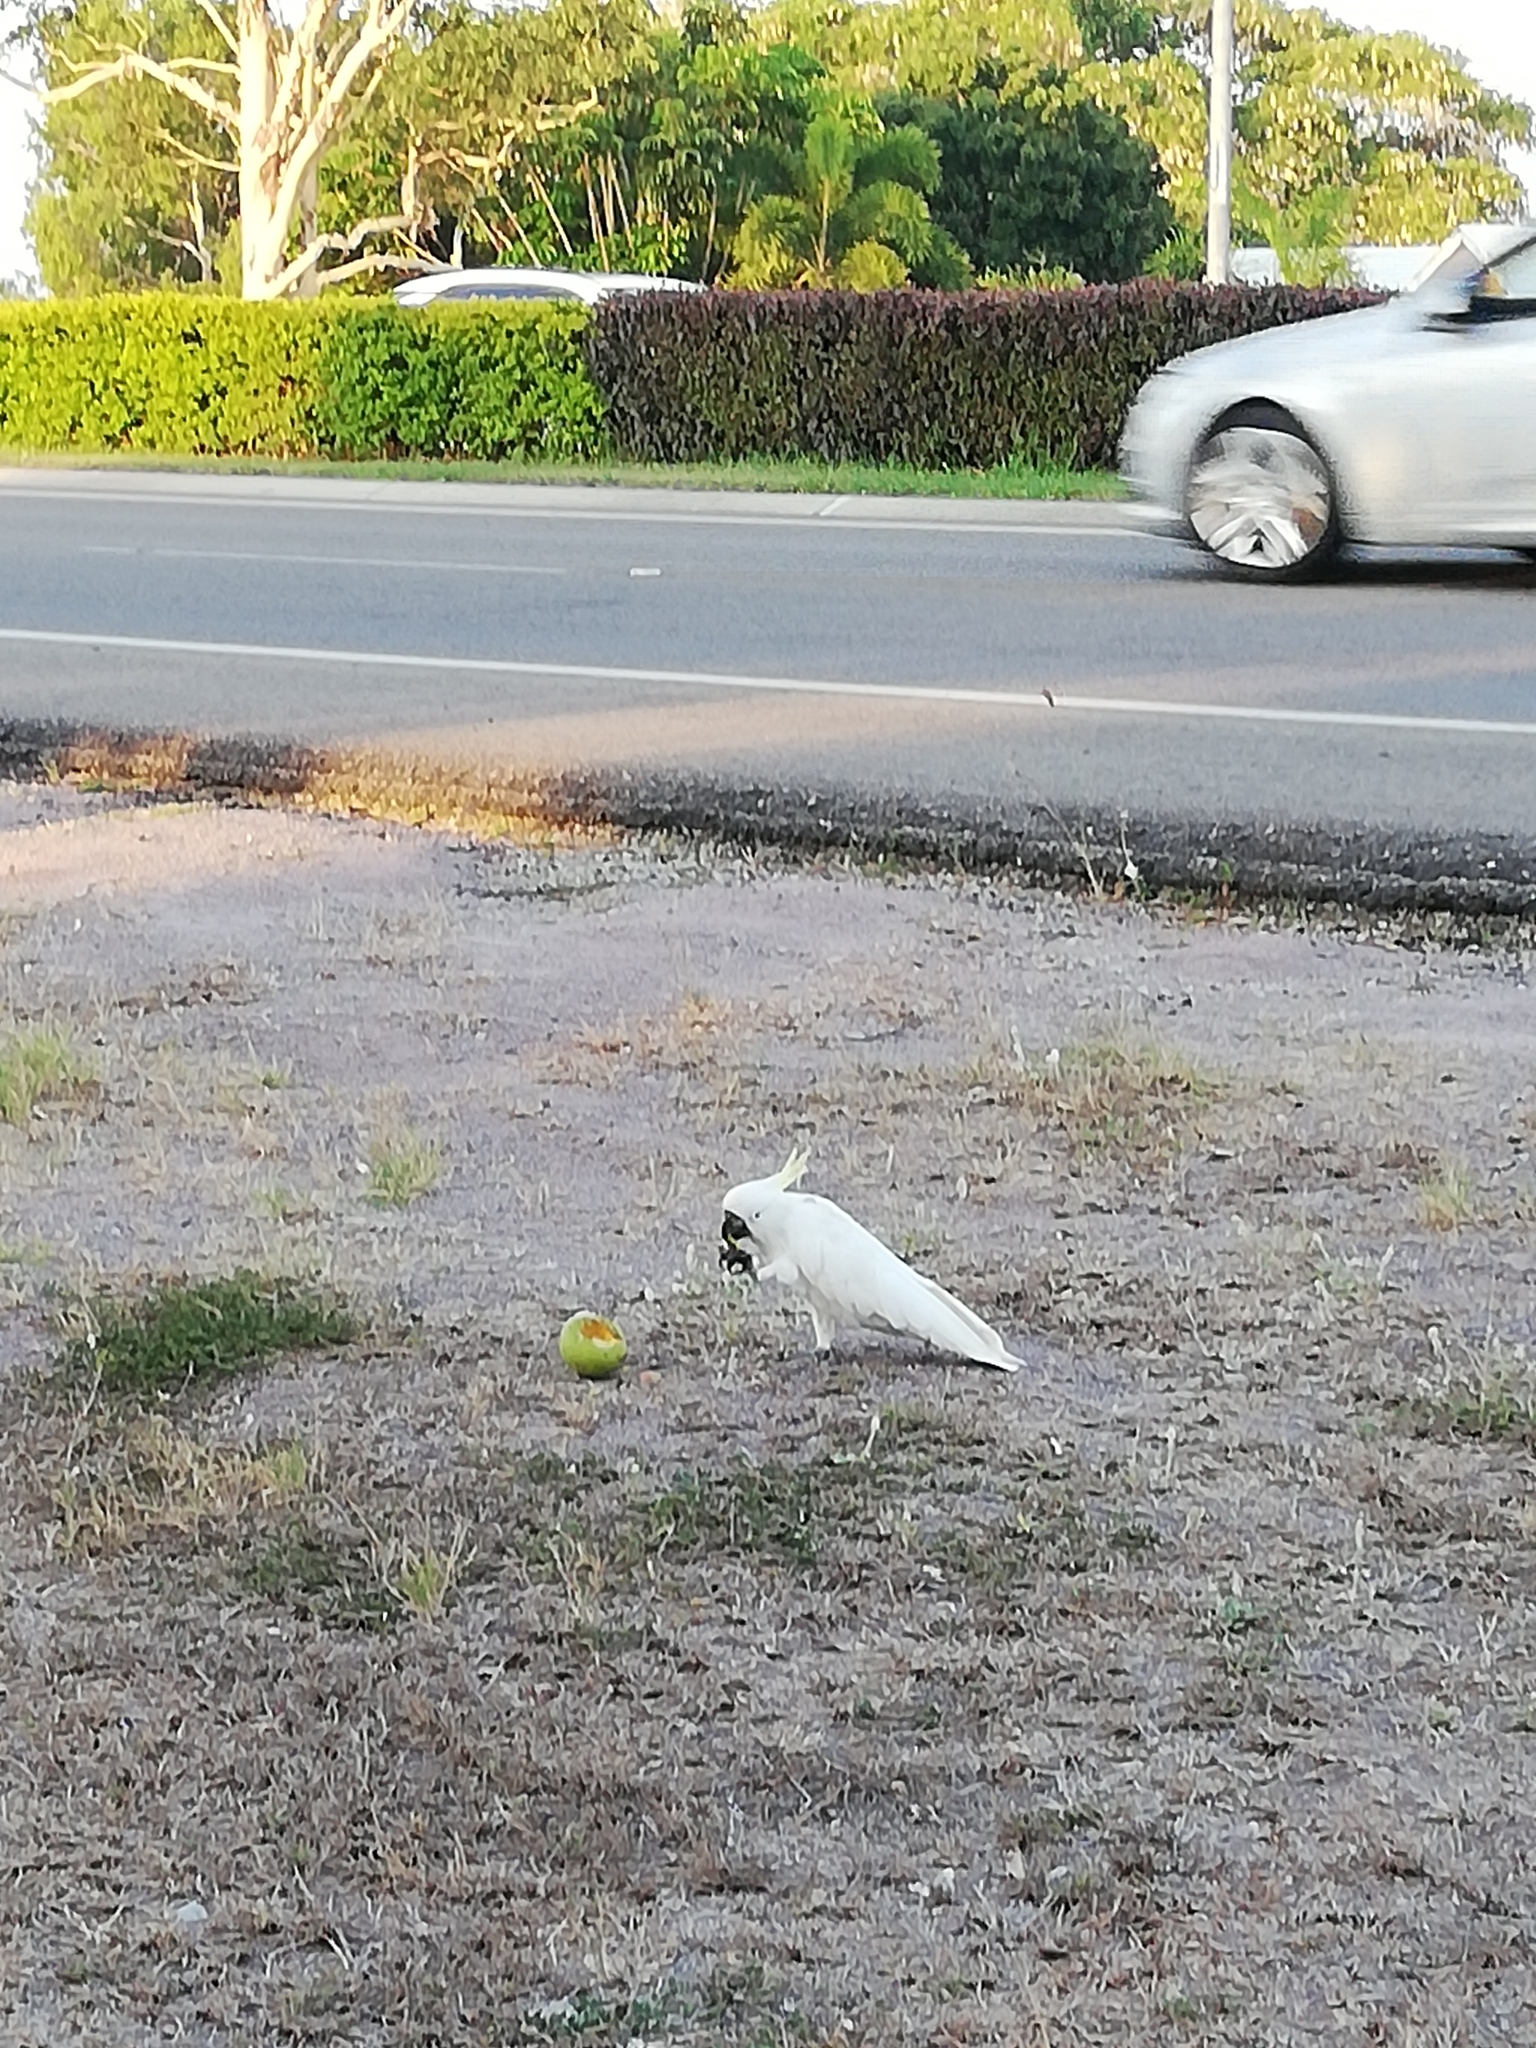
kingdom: Animalia
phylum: Chordata
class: Aves
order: Psittaciformes
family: Psittacidae
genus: Cacatua
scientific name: Cacatua galerita
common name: Sulphur-crested cockatoo
